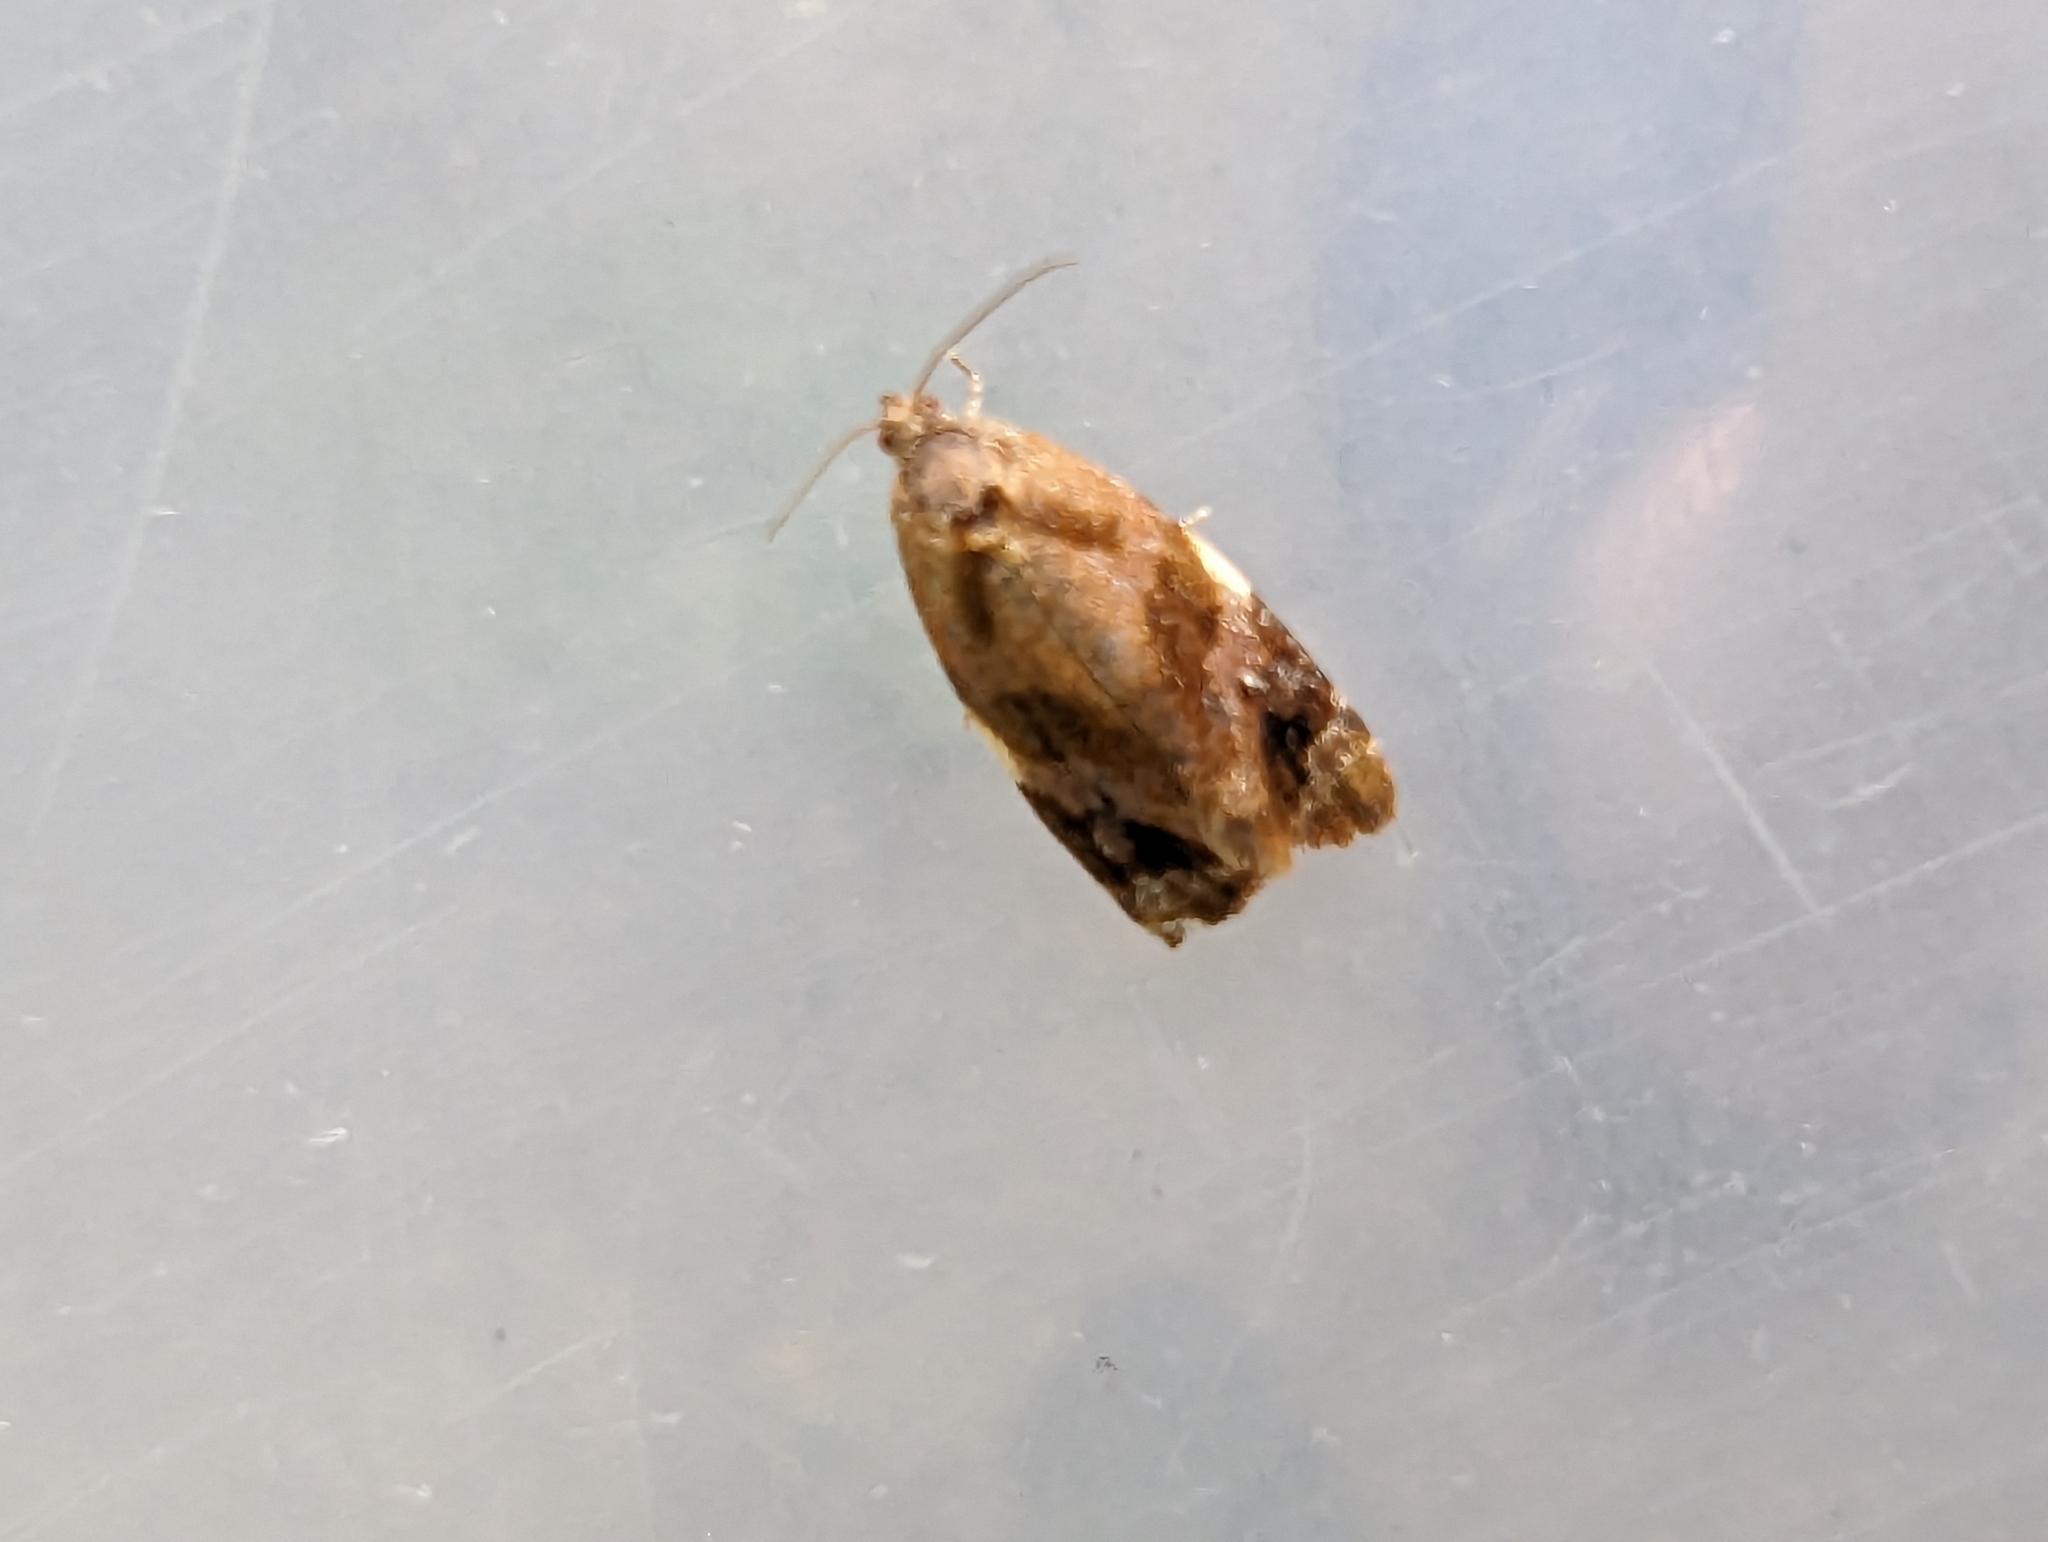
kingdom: Animalia
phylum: Arthropoda
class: Insecta
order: Lepidoptera
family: Tortricidae
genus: Ditula
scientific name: Ditula angustiorana
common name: Red-barred tortrix
